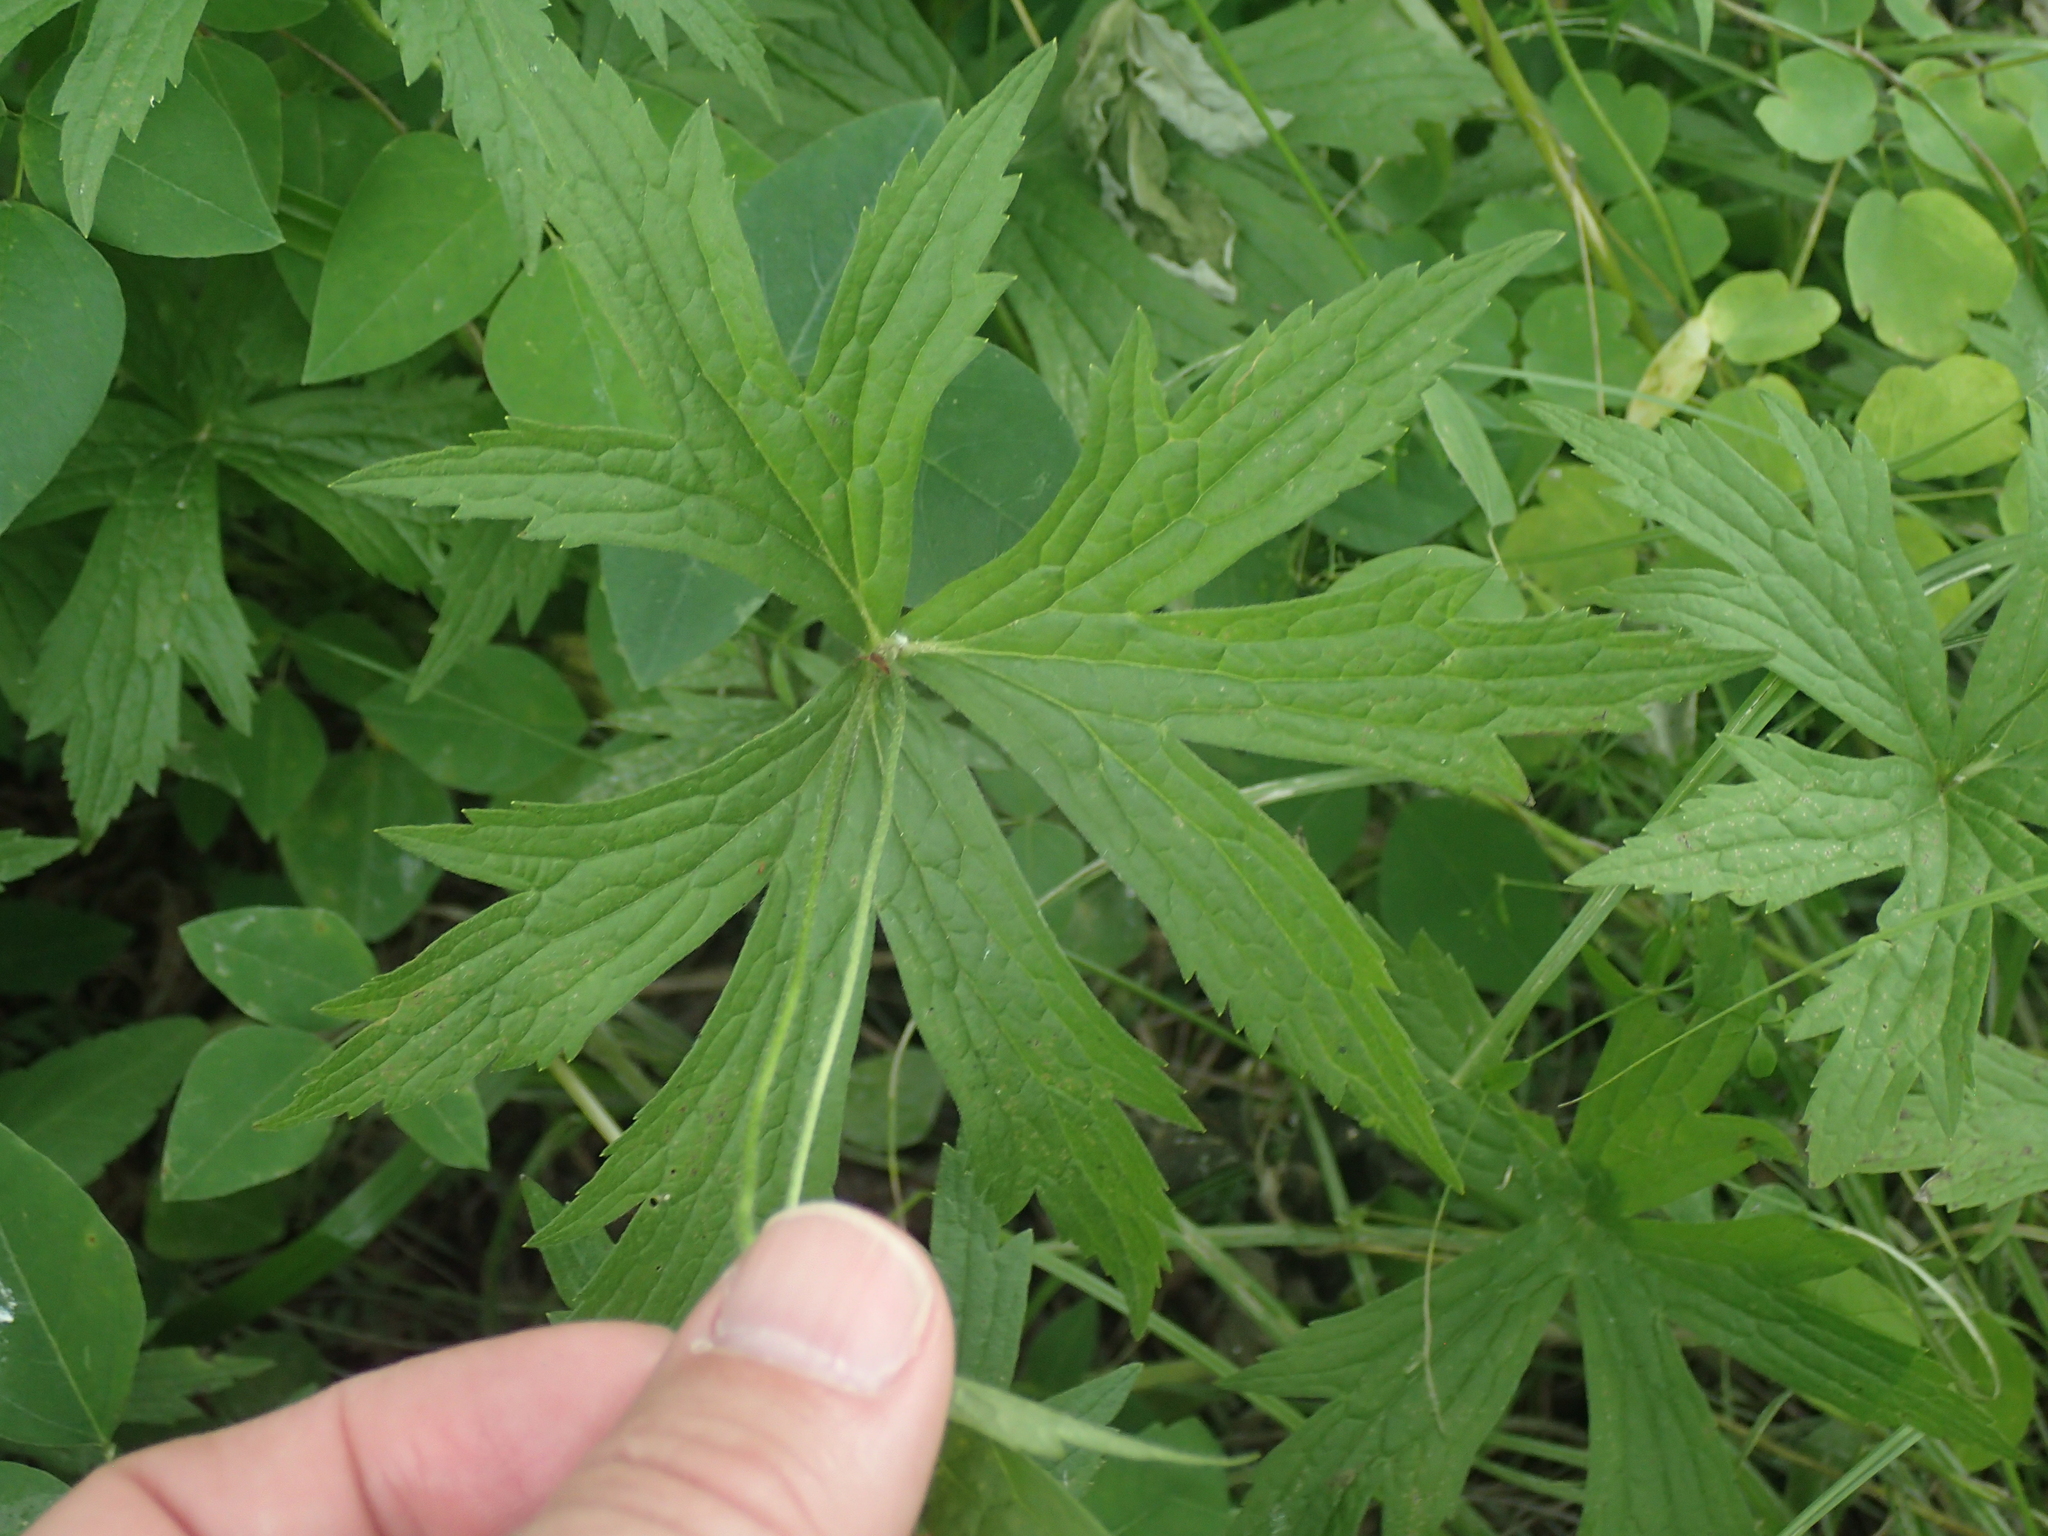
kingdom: Plantae
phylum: Tracheophyta
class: Magnoliopsida
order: Ranunculales
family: Ranunculaceae
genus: Anemonastrum
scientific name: Anemonastrum canadense
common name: Canada anemone
